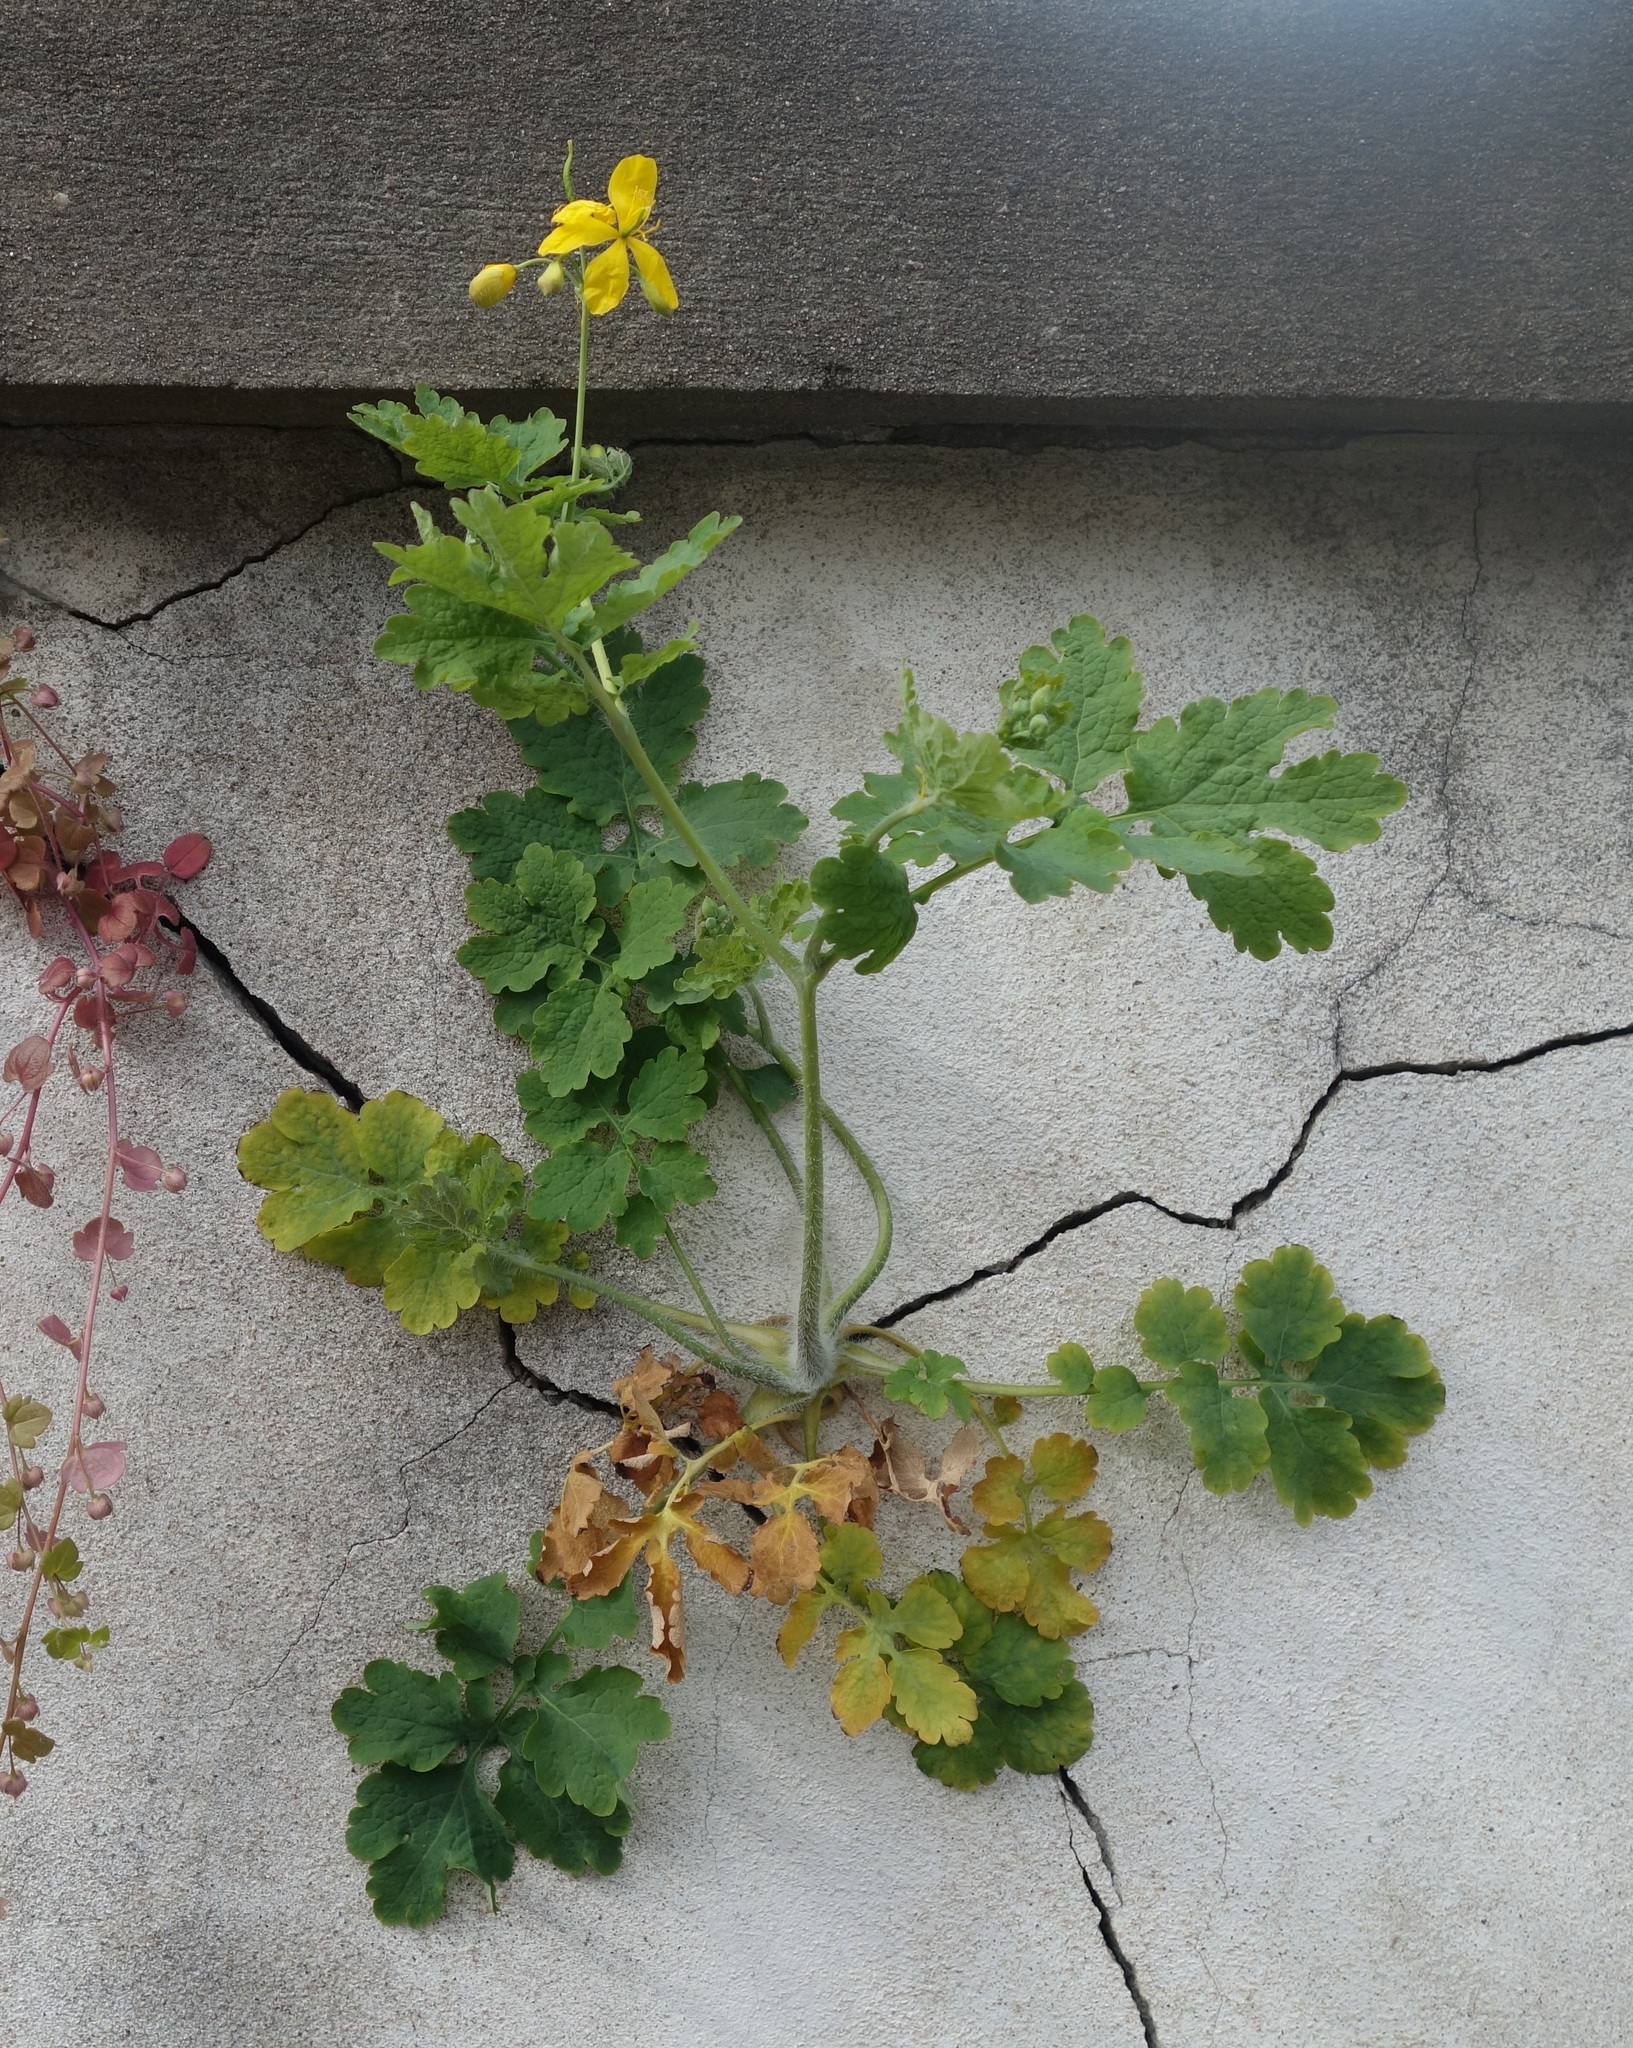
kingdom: Plantae
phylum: Tracheophyta
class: Magnoliopsida
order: Ranunculales
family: Papaveraceae
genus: Chelidonium
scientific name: Chelidonium majus
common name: Greater celandine
